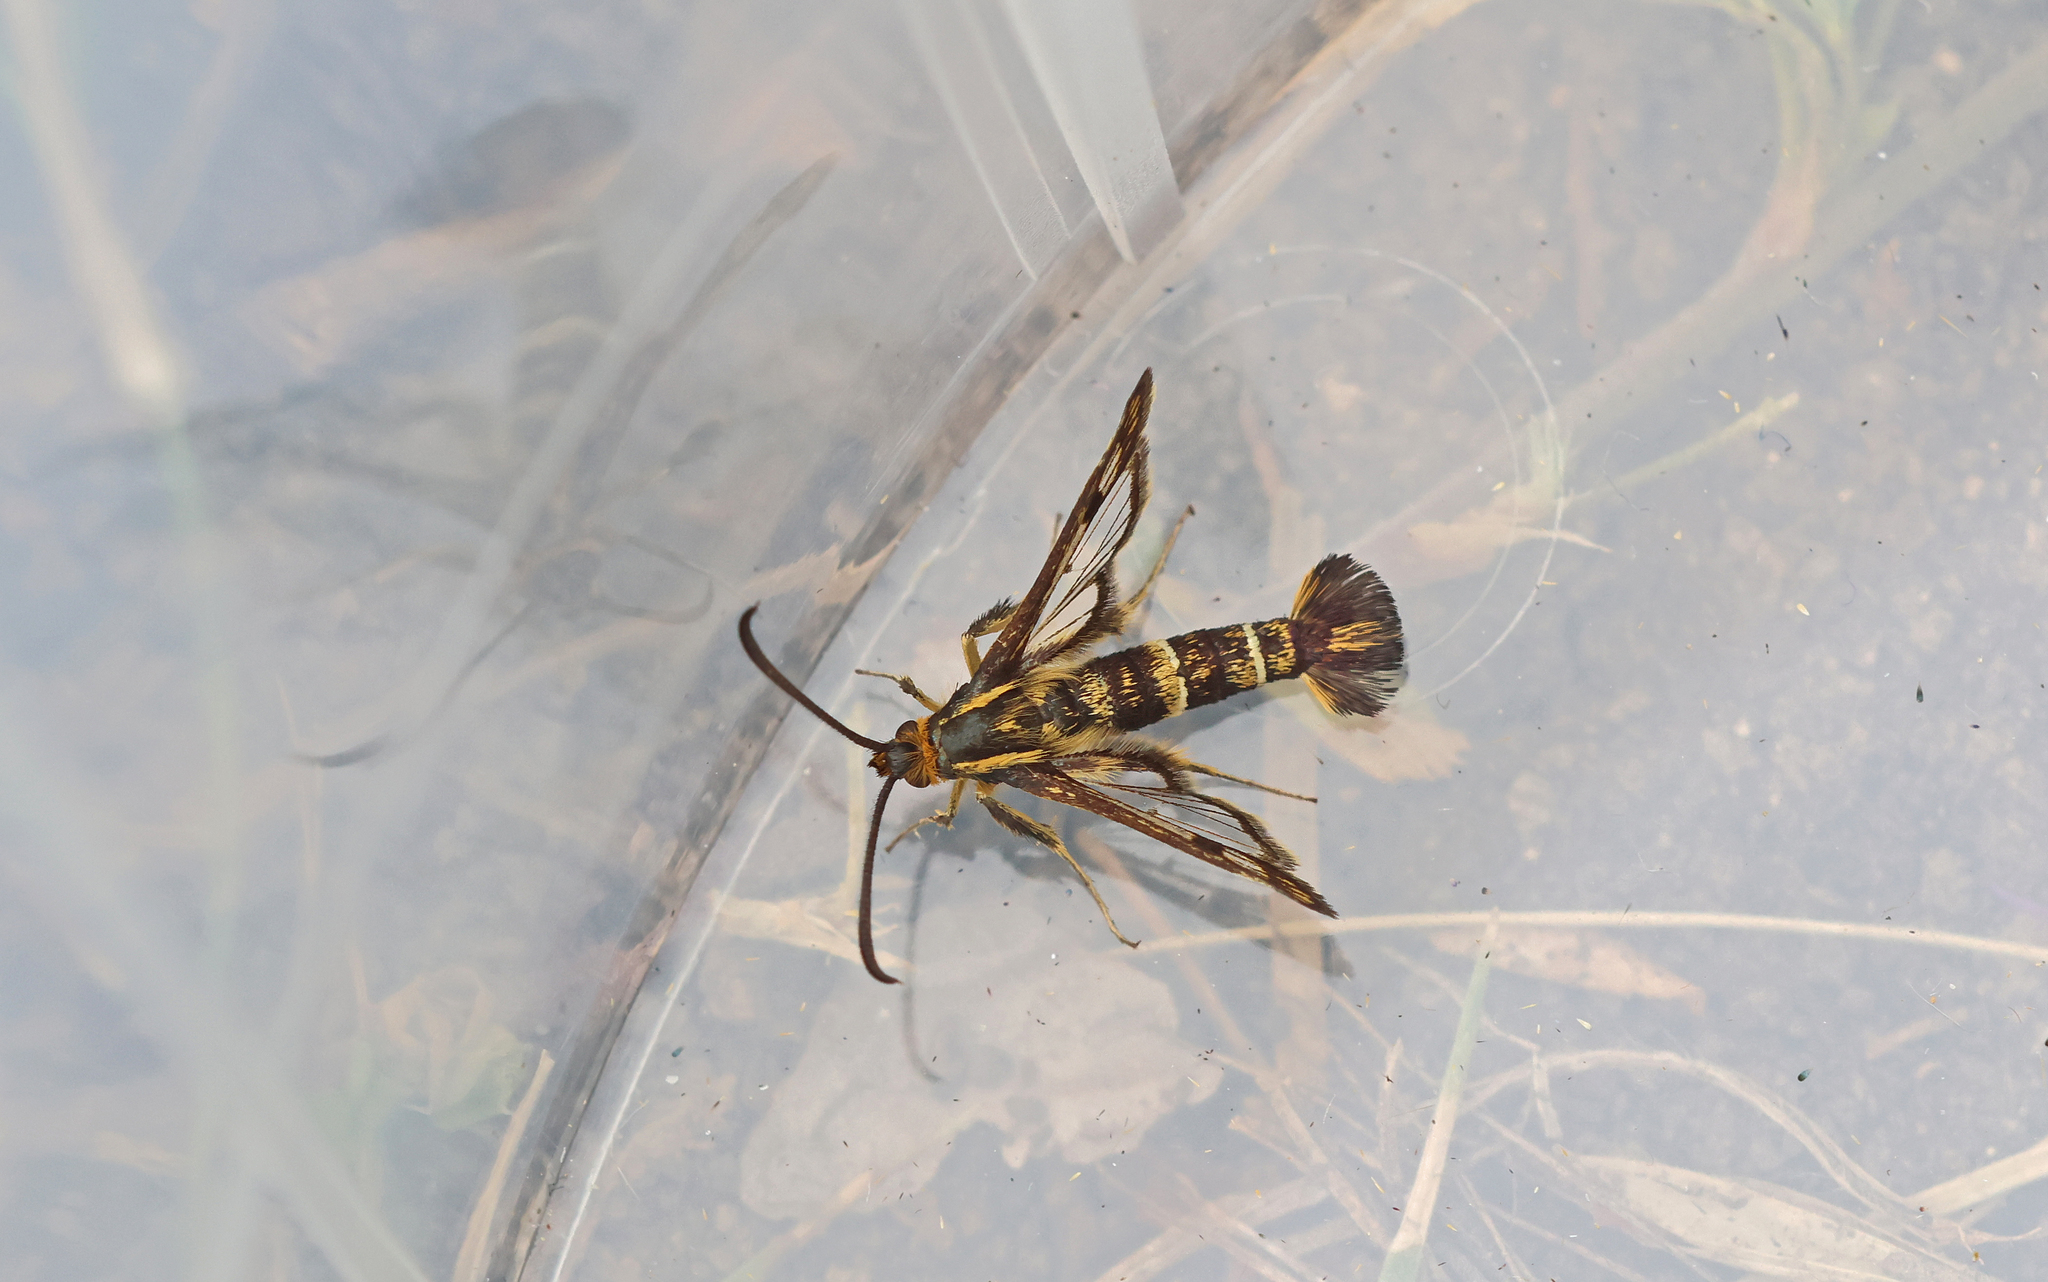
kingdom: Animalia
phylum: Arthropoda
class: Insecta
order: Lepidoptera
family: Sesiidae
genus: Chamaesphecia
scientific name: Chamaesphecia empiformis
